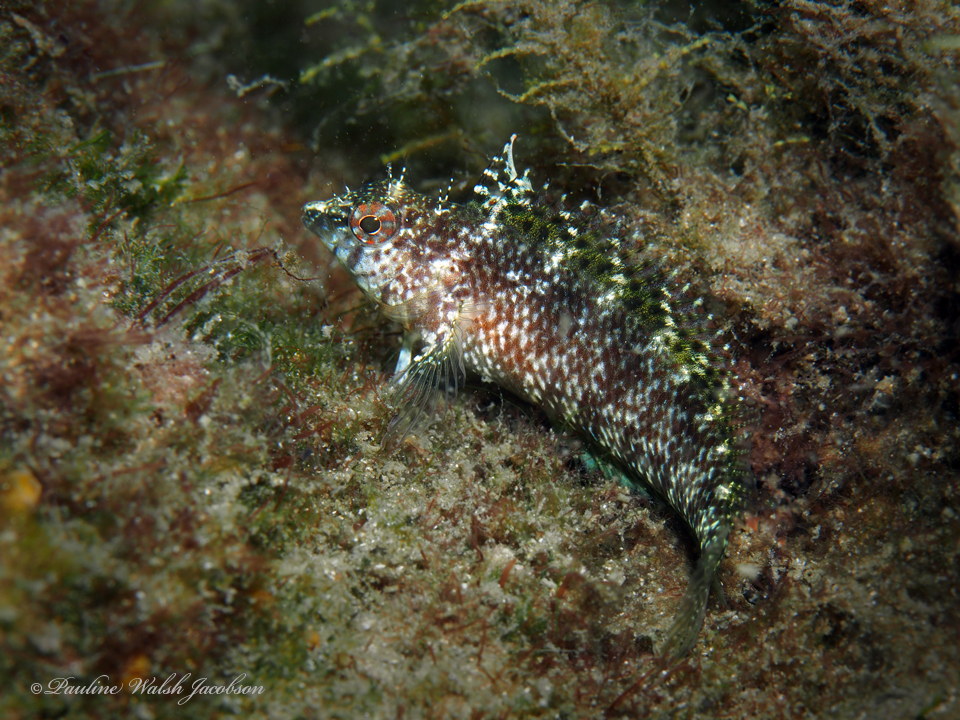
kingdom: Animalia
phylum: Chordata
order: Perciformes
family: Labrisomidae
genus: Malacoctenus
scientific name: Malacoctenus macropus
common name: Rosy blenny
